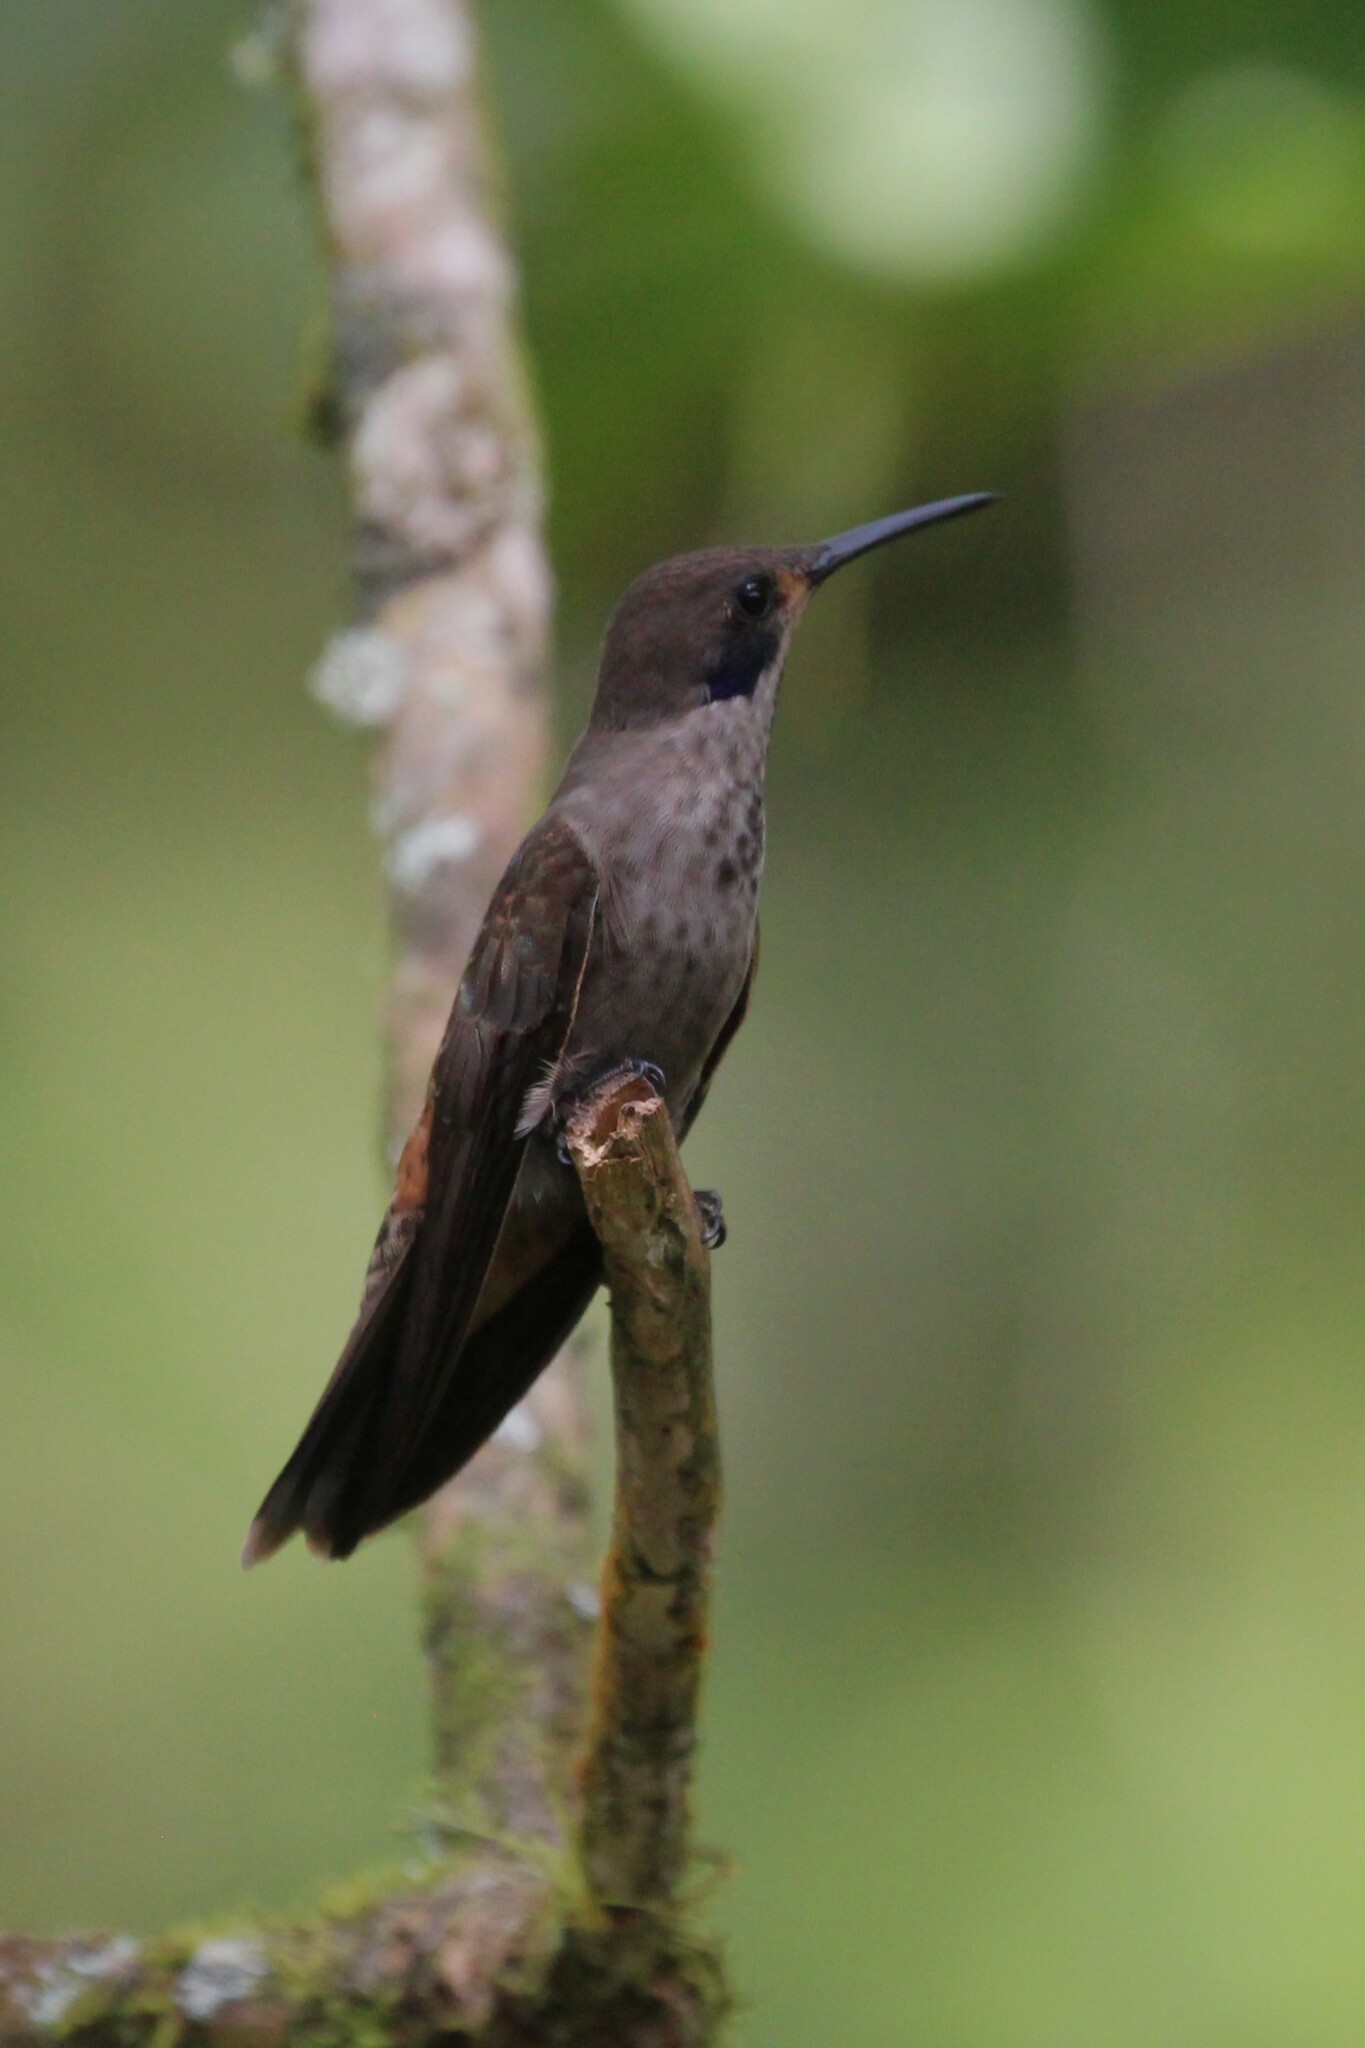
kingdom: Animalia
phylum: Chordata
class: Aves
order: Apodiformes
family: Trochilidae
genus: Colibri
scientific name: Colibri delphinae
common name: Brown violetear
